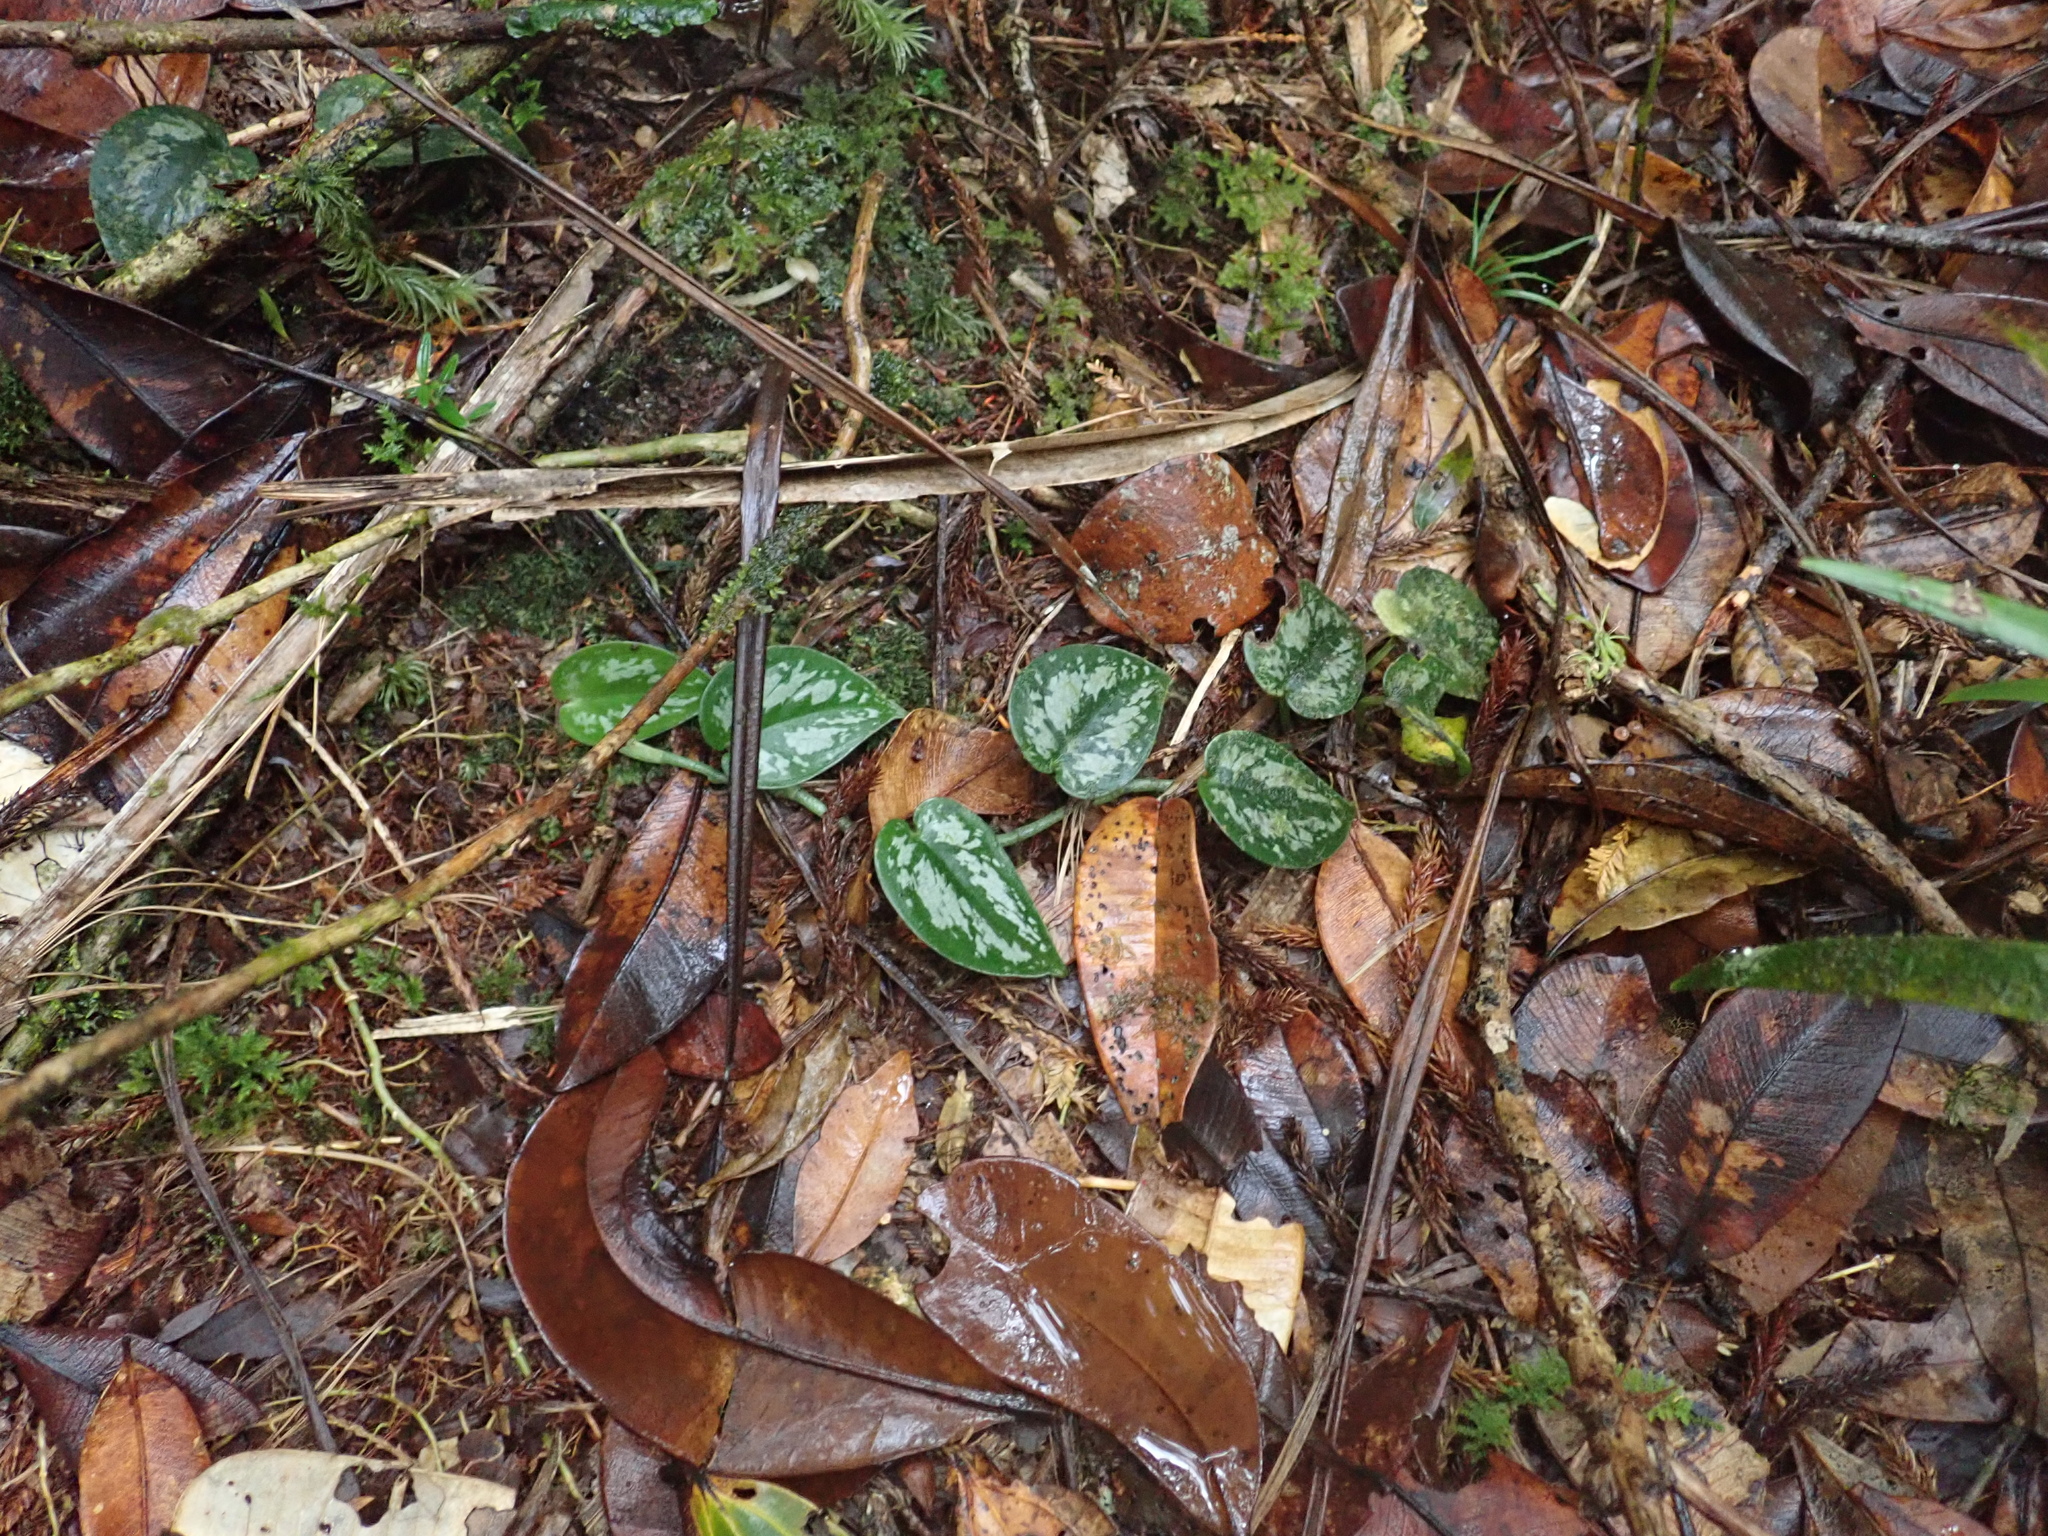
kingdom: Plantae
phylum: Tracheophyta
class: Liliopsida
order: Alismatales
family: Araceae
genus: Scindapsus
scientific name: Scindapsus pictus
